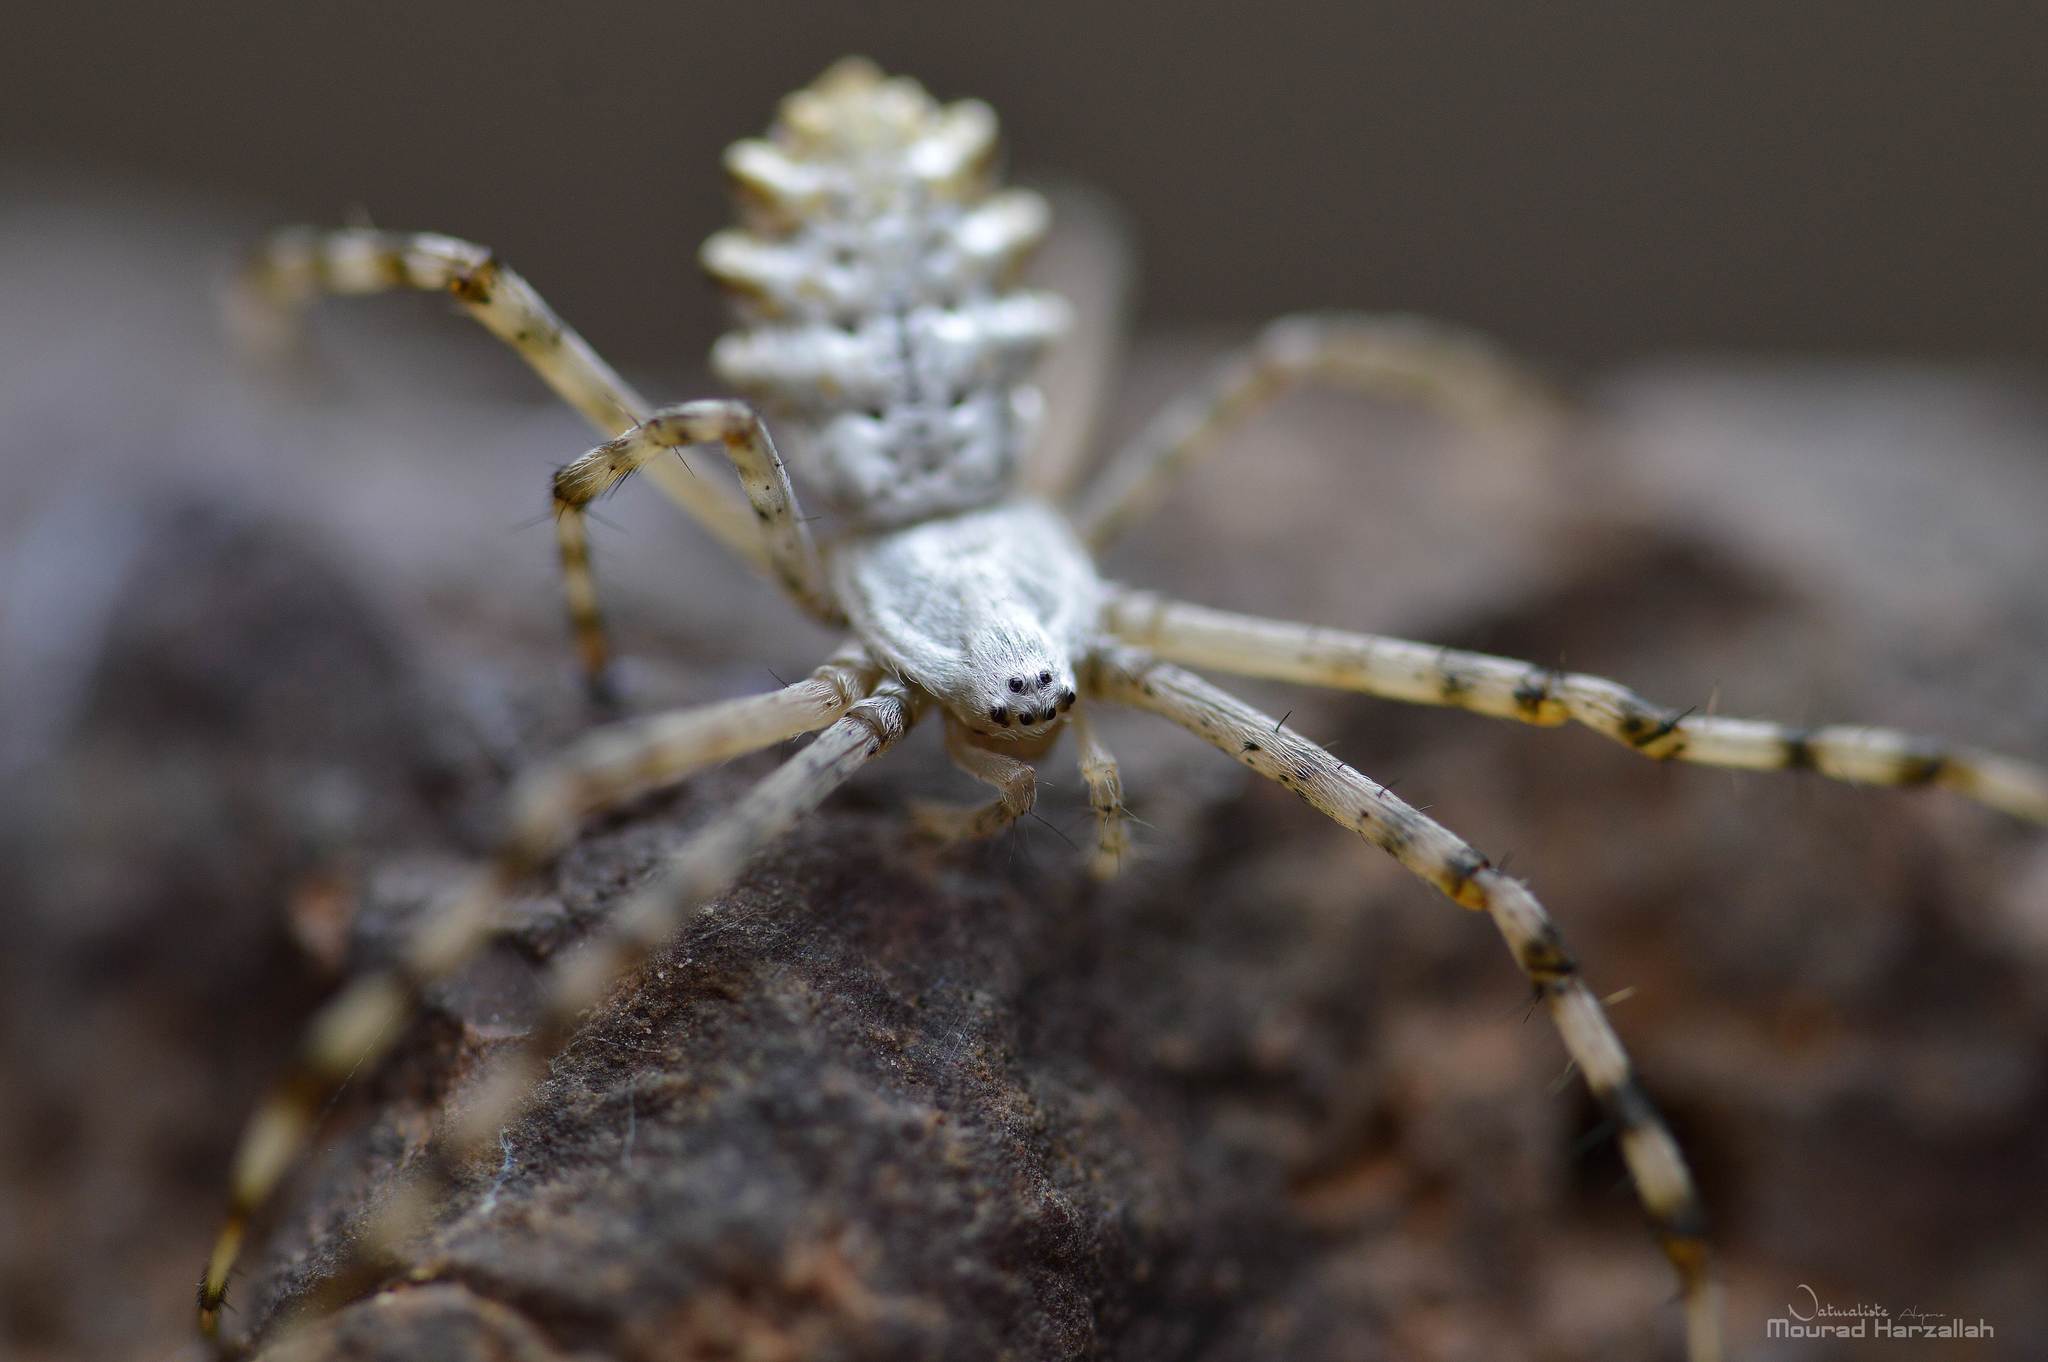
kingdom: Animalia
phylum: Arthropoda
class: Arachnida
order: Araneae
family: Araneidae
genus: Argiope
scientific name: Argiope lobata
